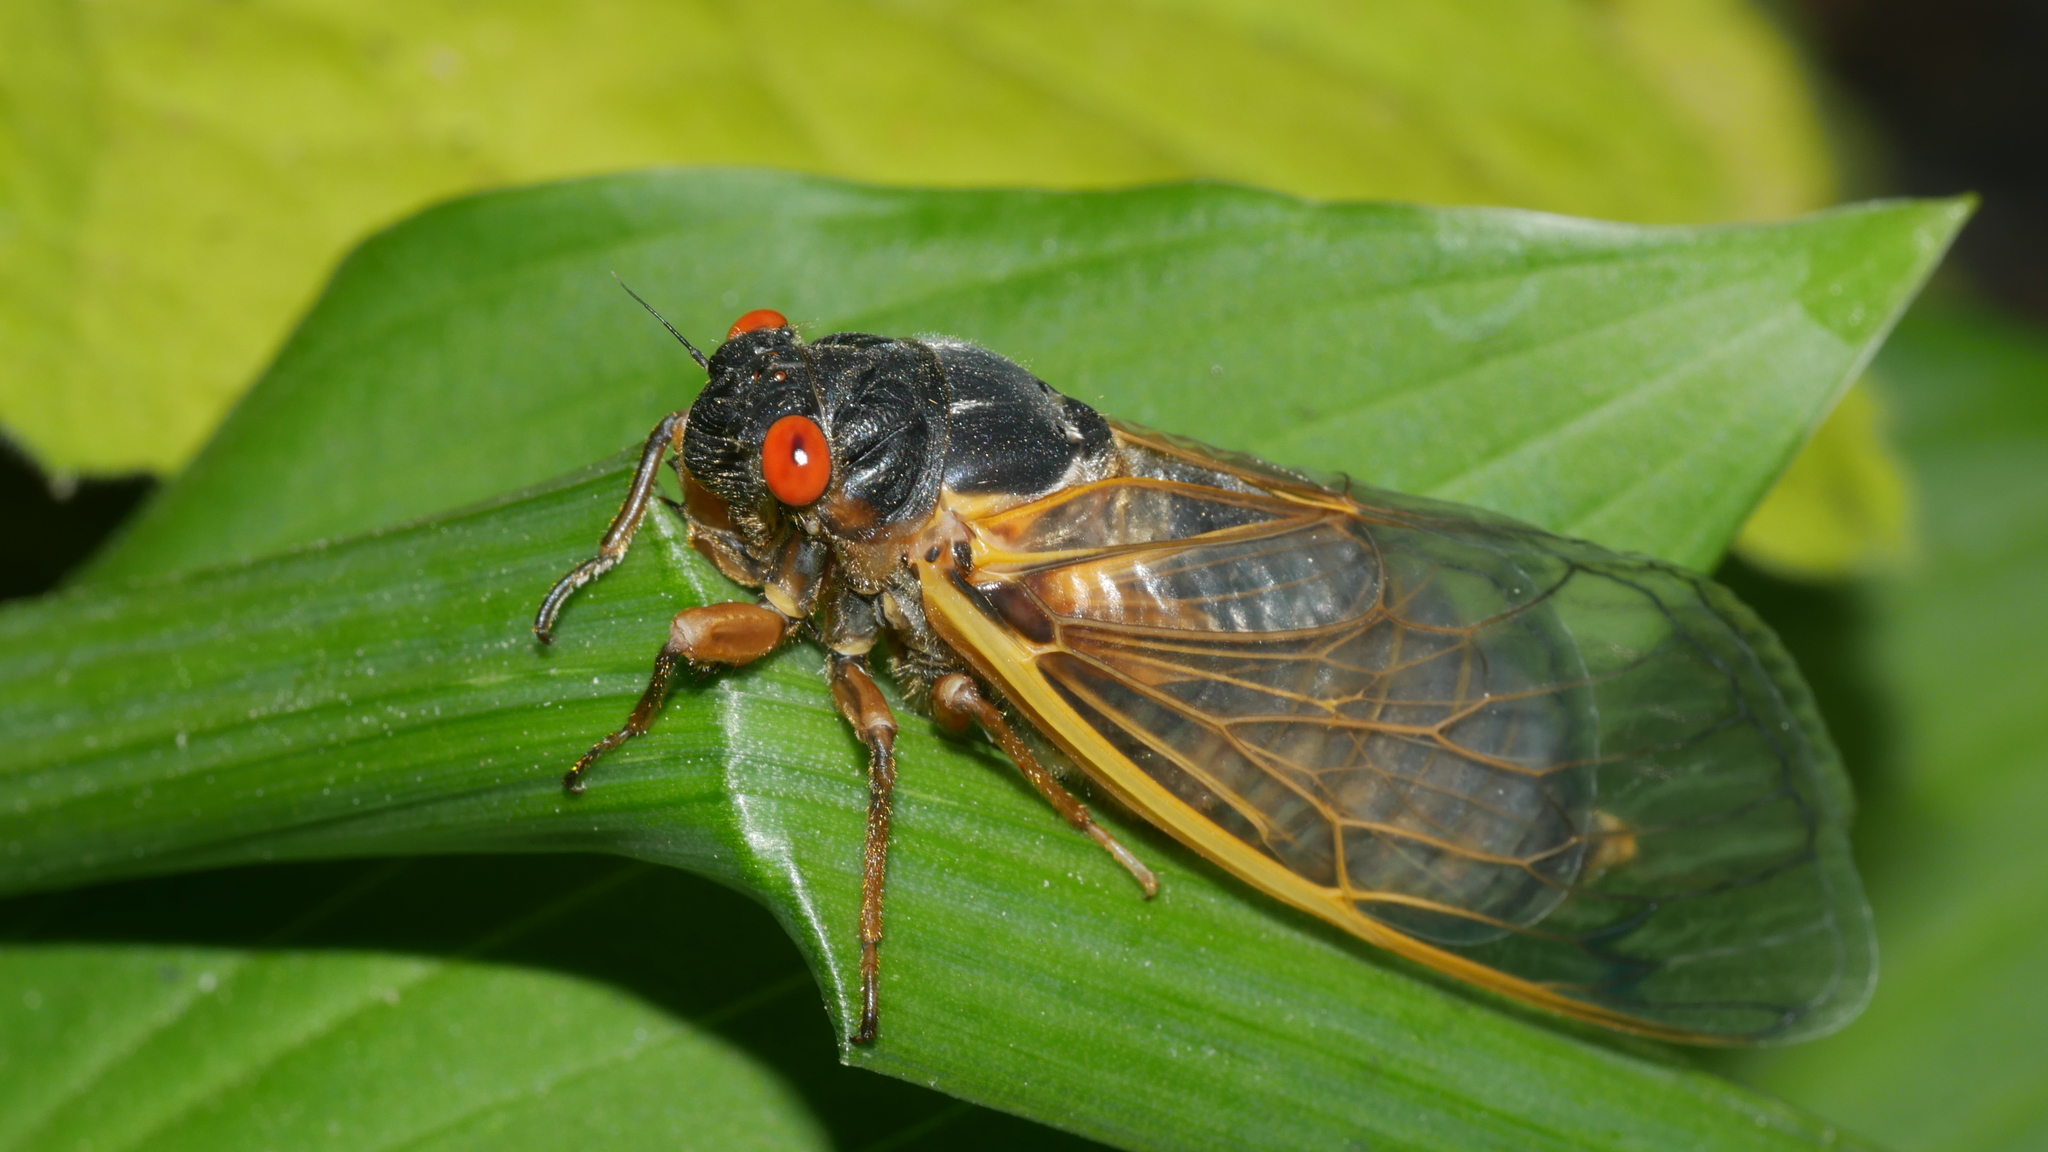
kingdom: Animalia
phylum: Arthropoda
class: Insecta
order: Hemiptera
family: Cicadidae
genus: Magicicada
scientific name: Magicicada septendecim
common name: Periodical cicada
